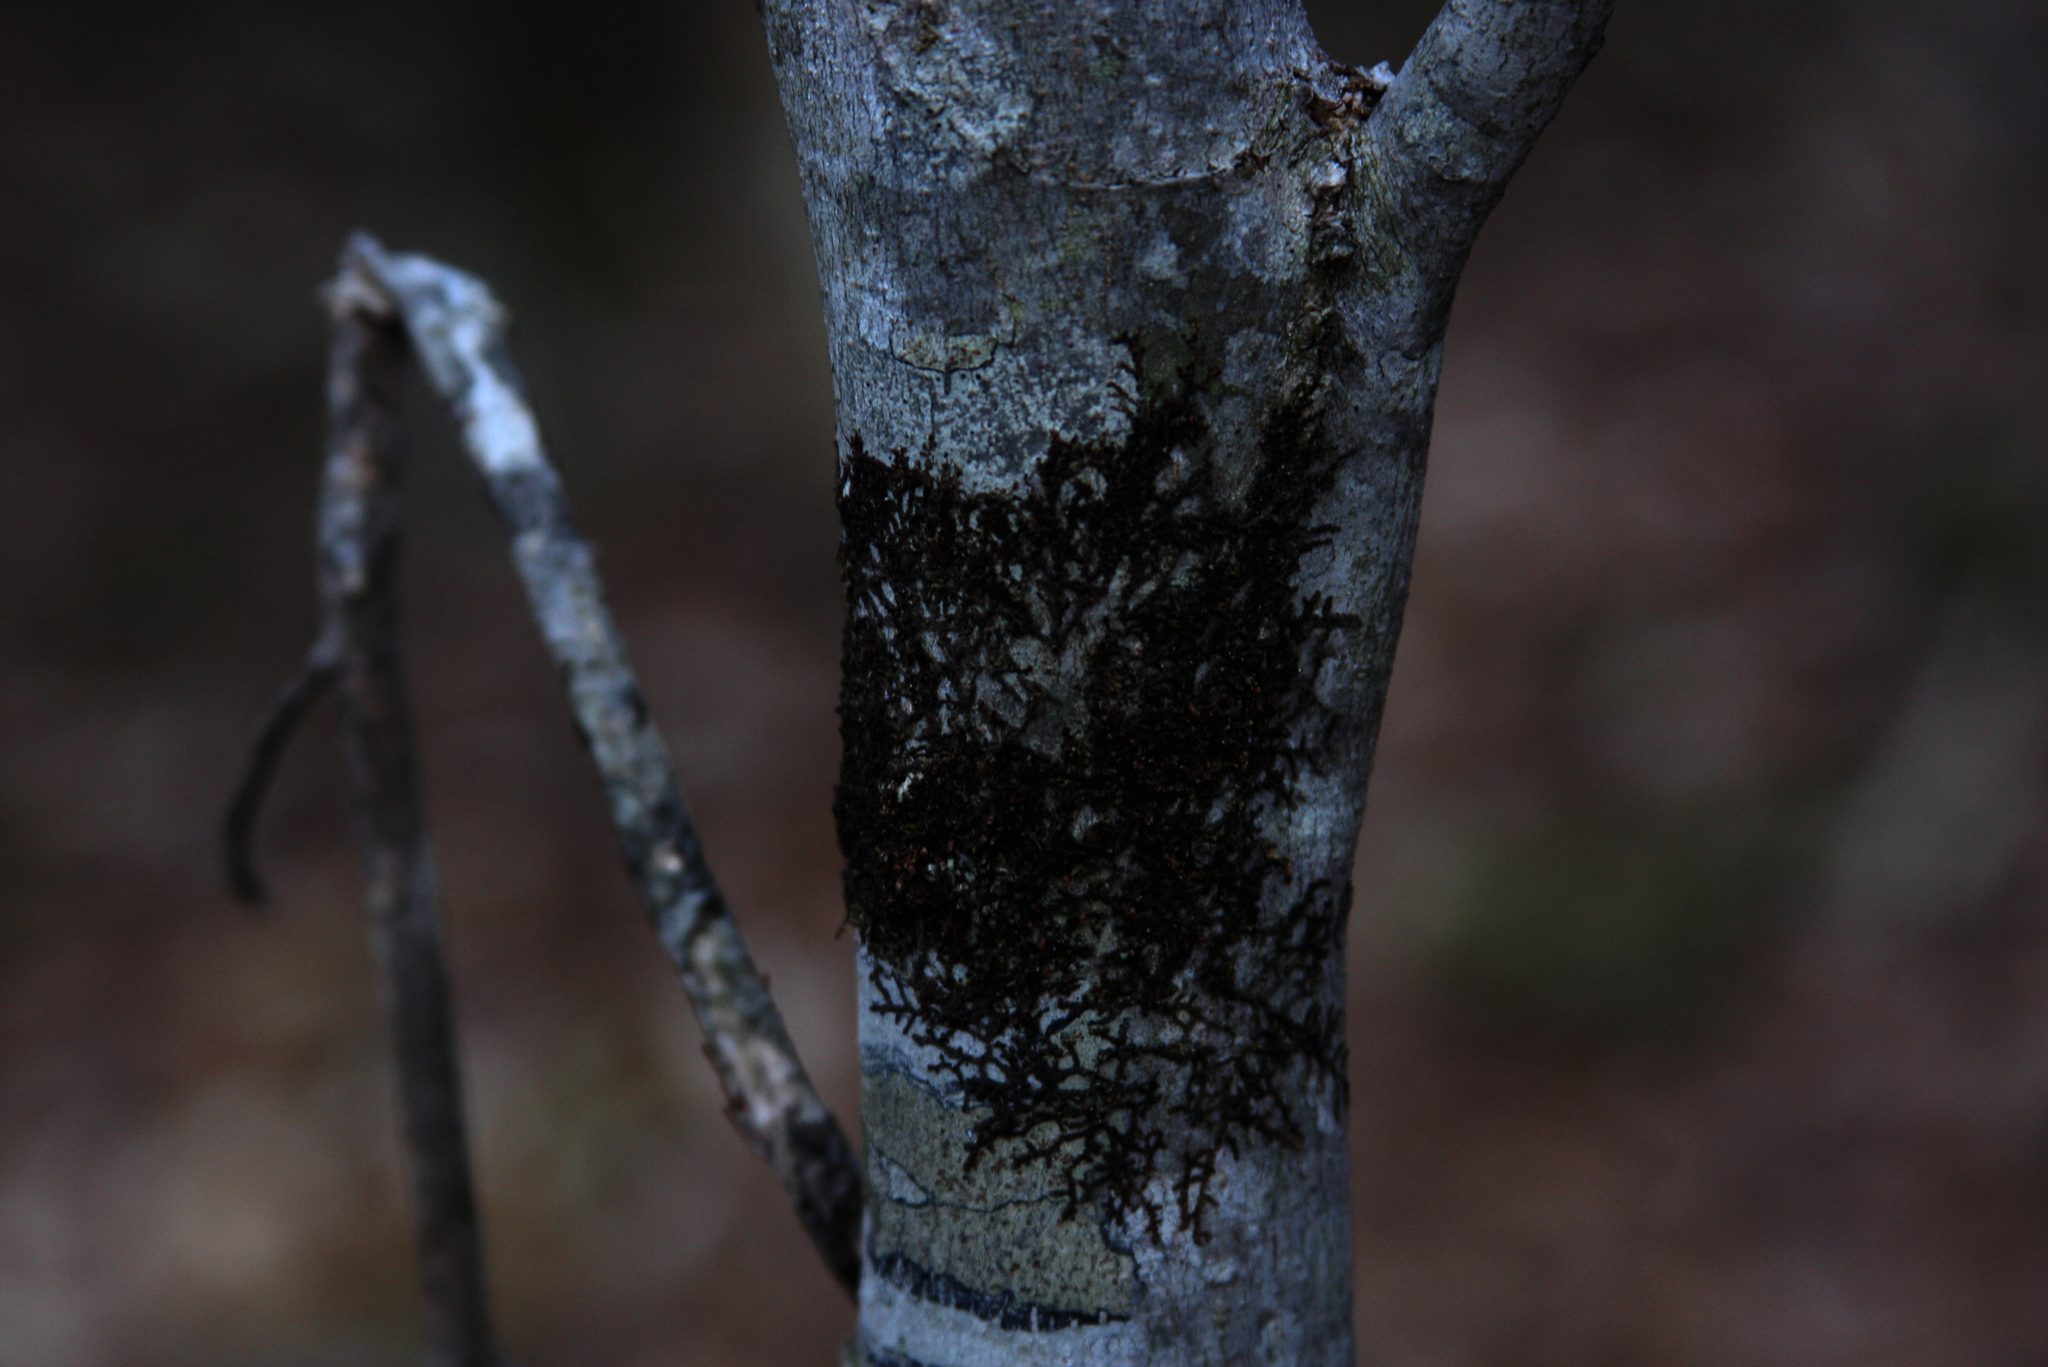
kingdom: Plantae
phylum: Marchantiophyta
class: Jungermanniopsida
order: Porellales
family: Frullaniaceae
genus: Frullania
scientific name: Frullania eboracensis
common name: New york scalewort
